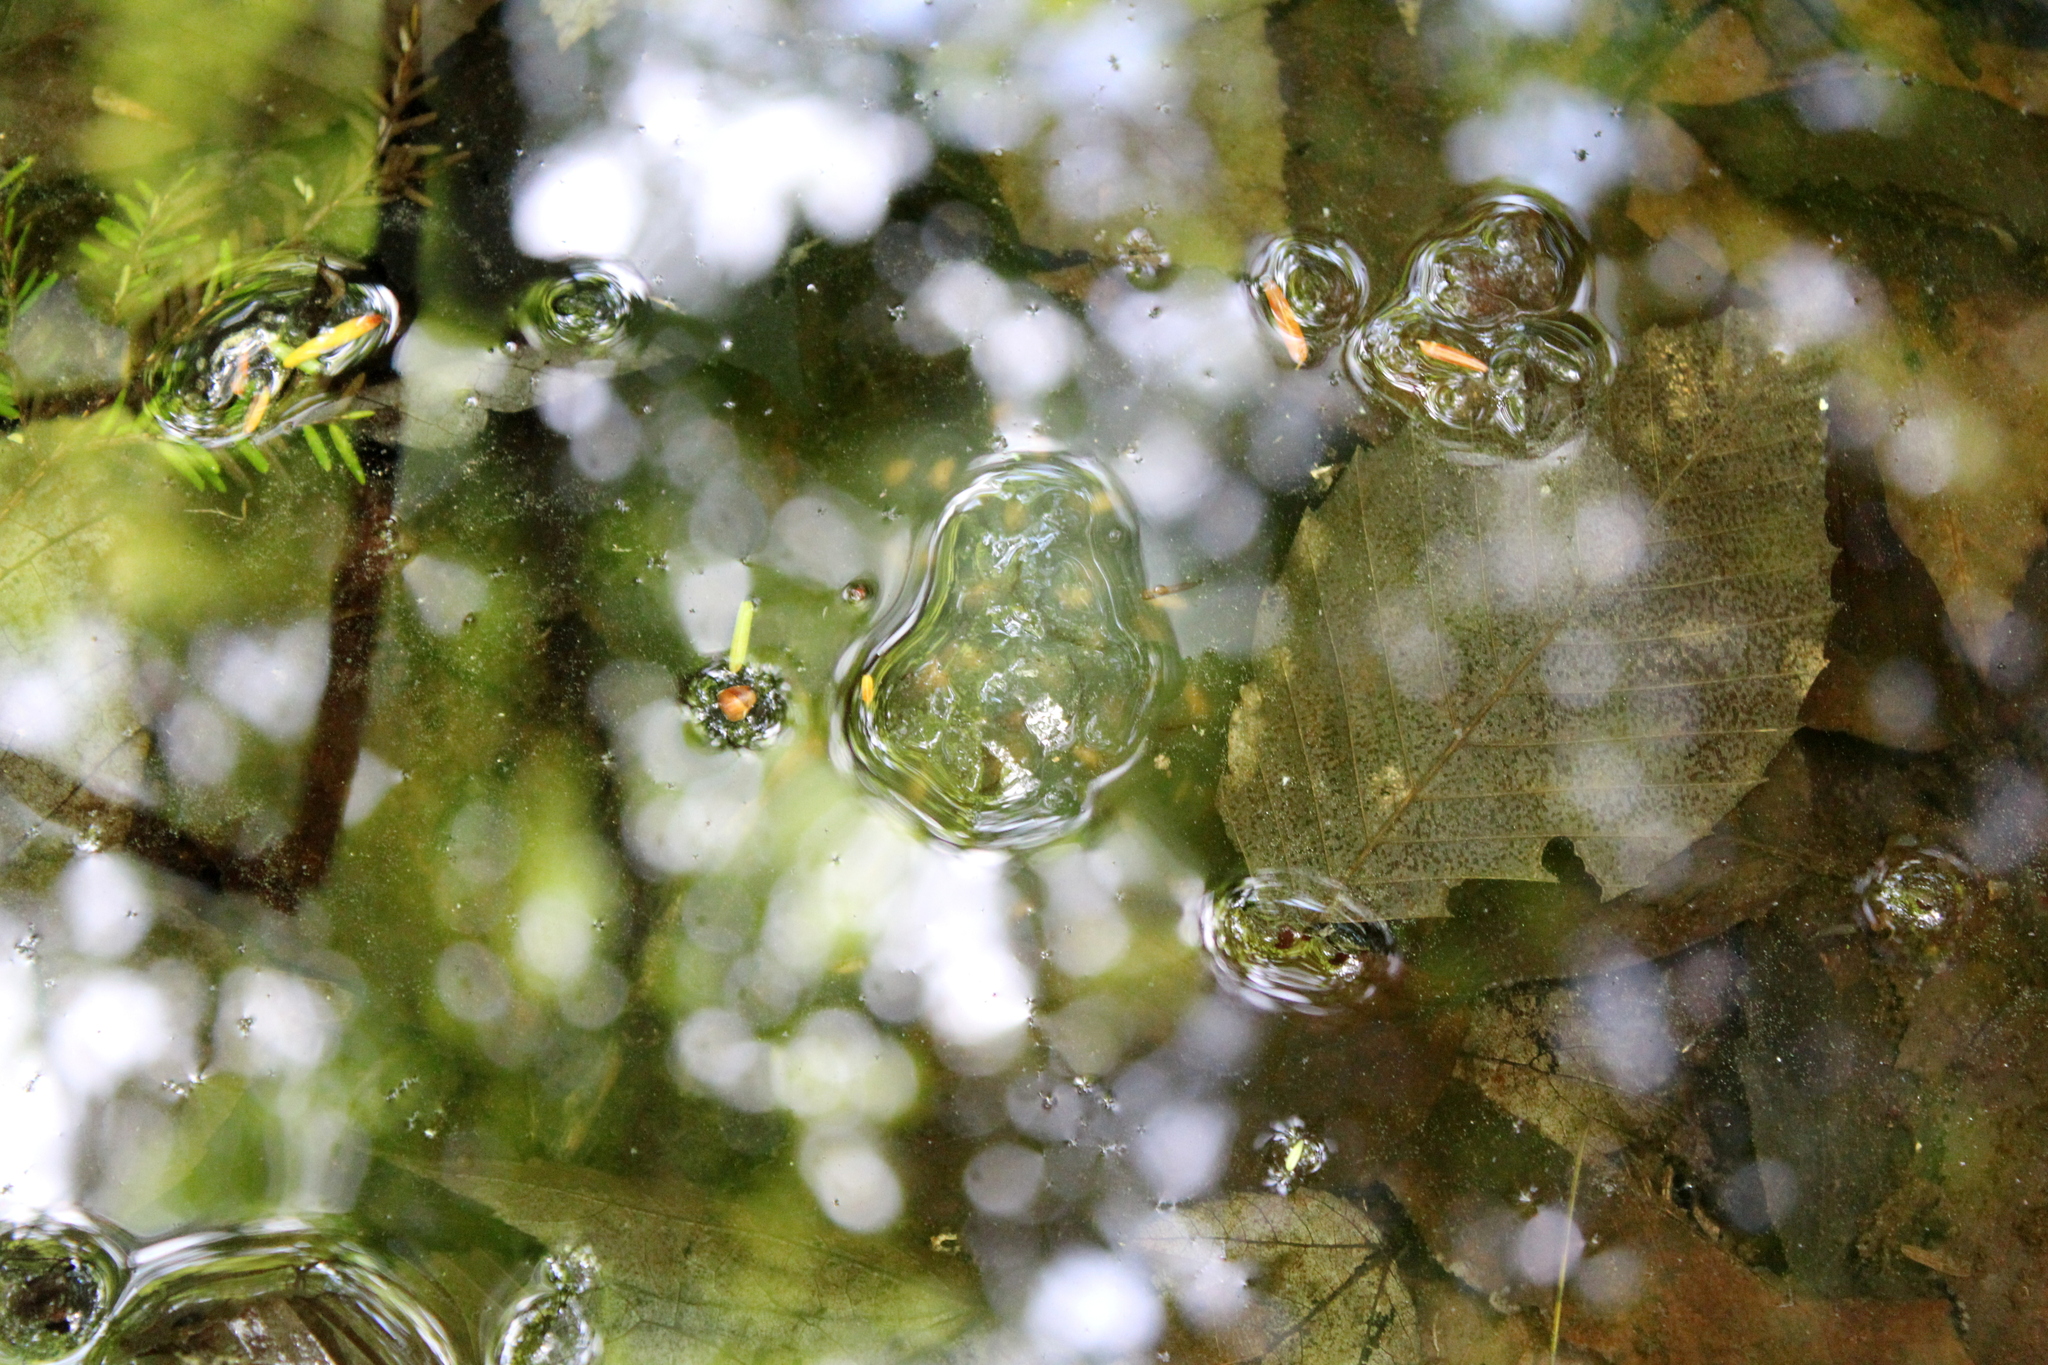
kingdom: Animalia
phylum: Chordata
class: Amphibia
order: Caudata
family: Ambystomatidae
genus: Ambystoma
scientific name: Ambystoma maculatum
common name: Spotted salamander
